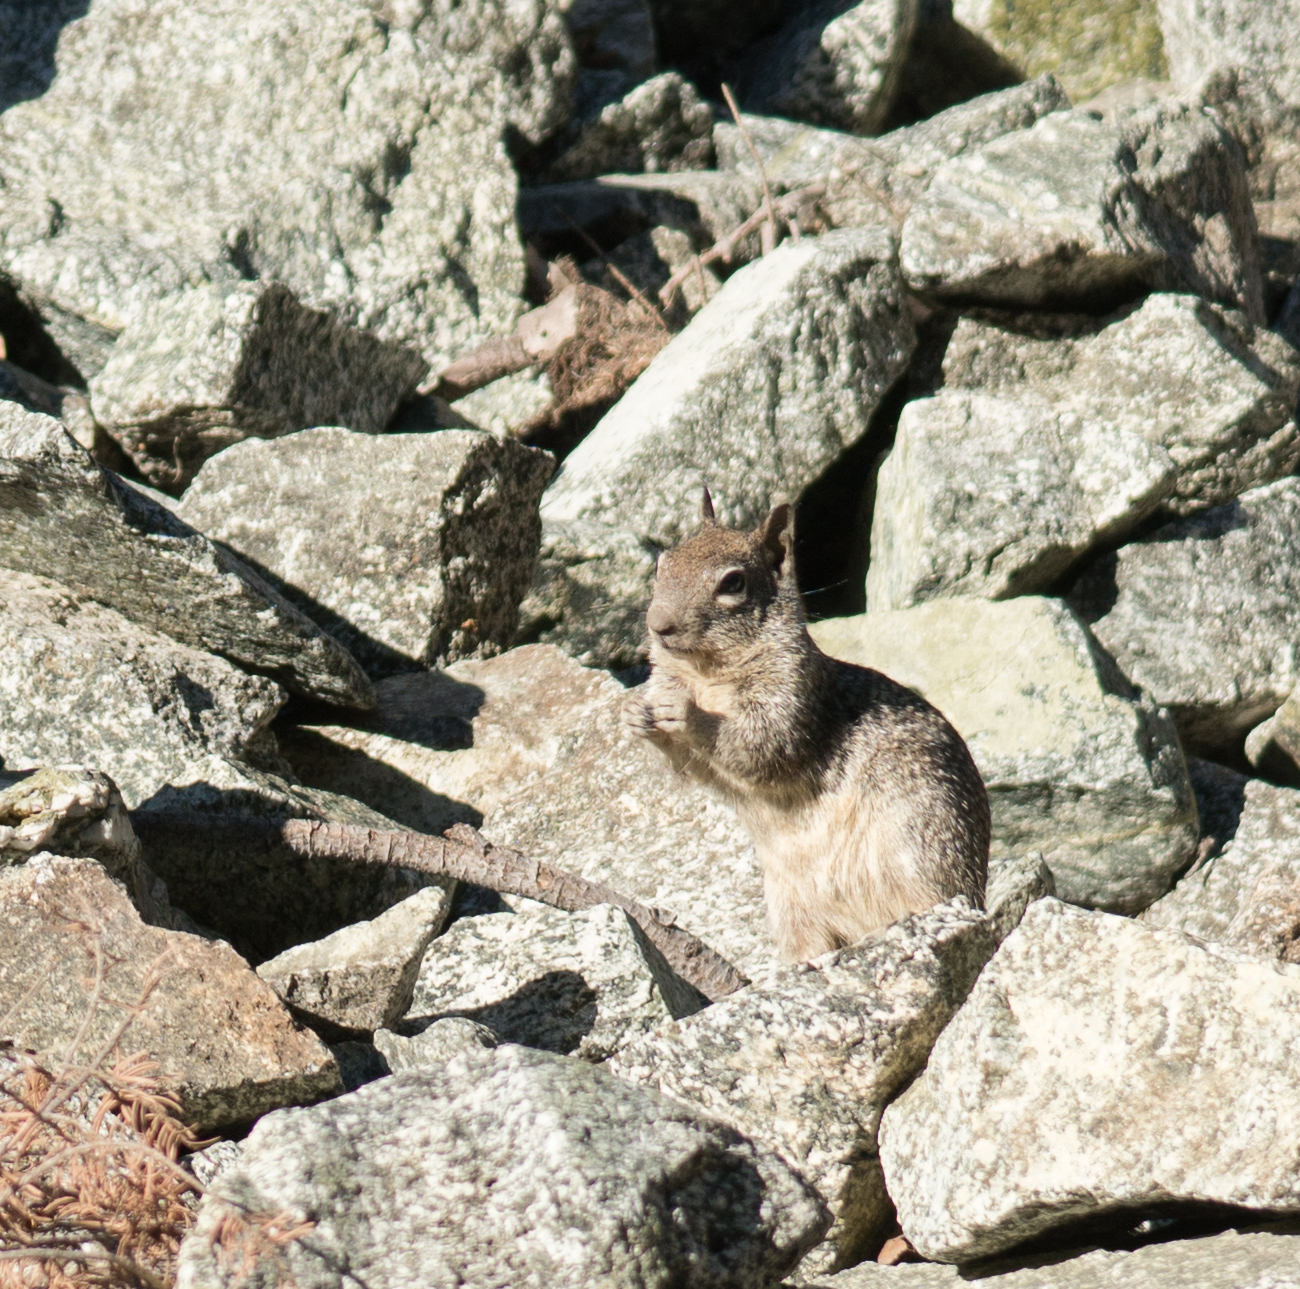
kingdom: Animalia
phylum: Chordata
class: Mammalia
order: Rodentia
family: Sciuridae
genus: Otospermophilus
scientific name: Otospermophilus beecheyi
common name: California ground squirrel
